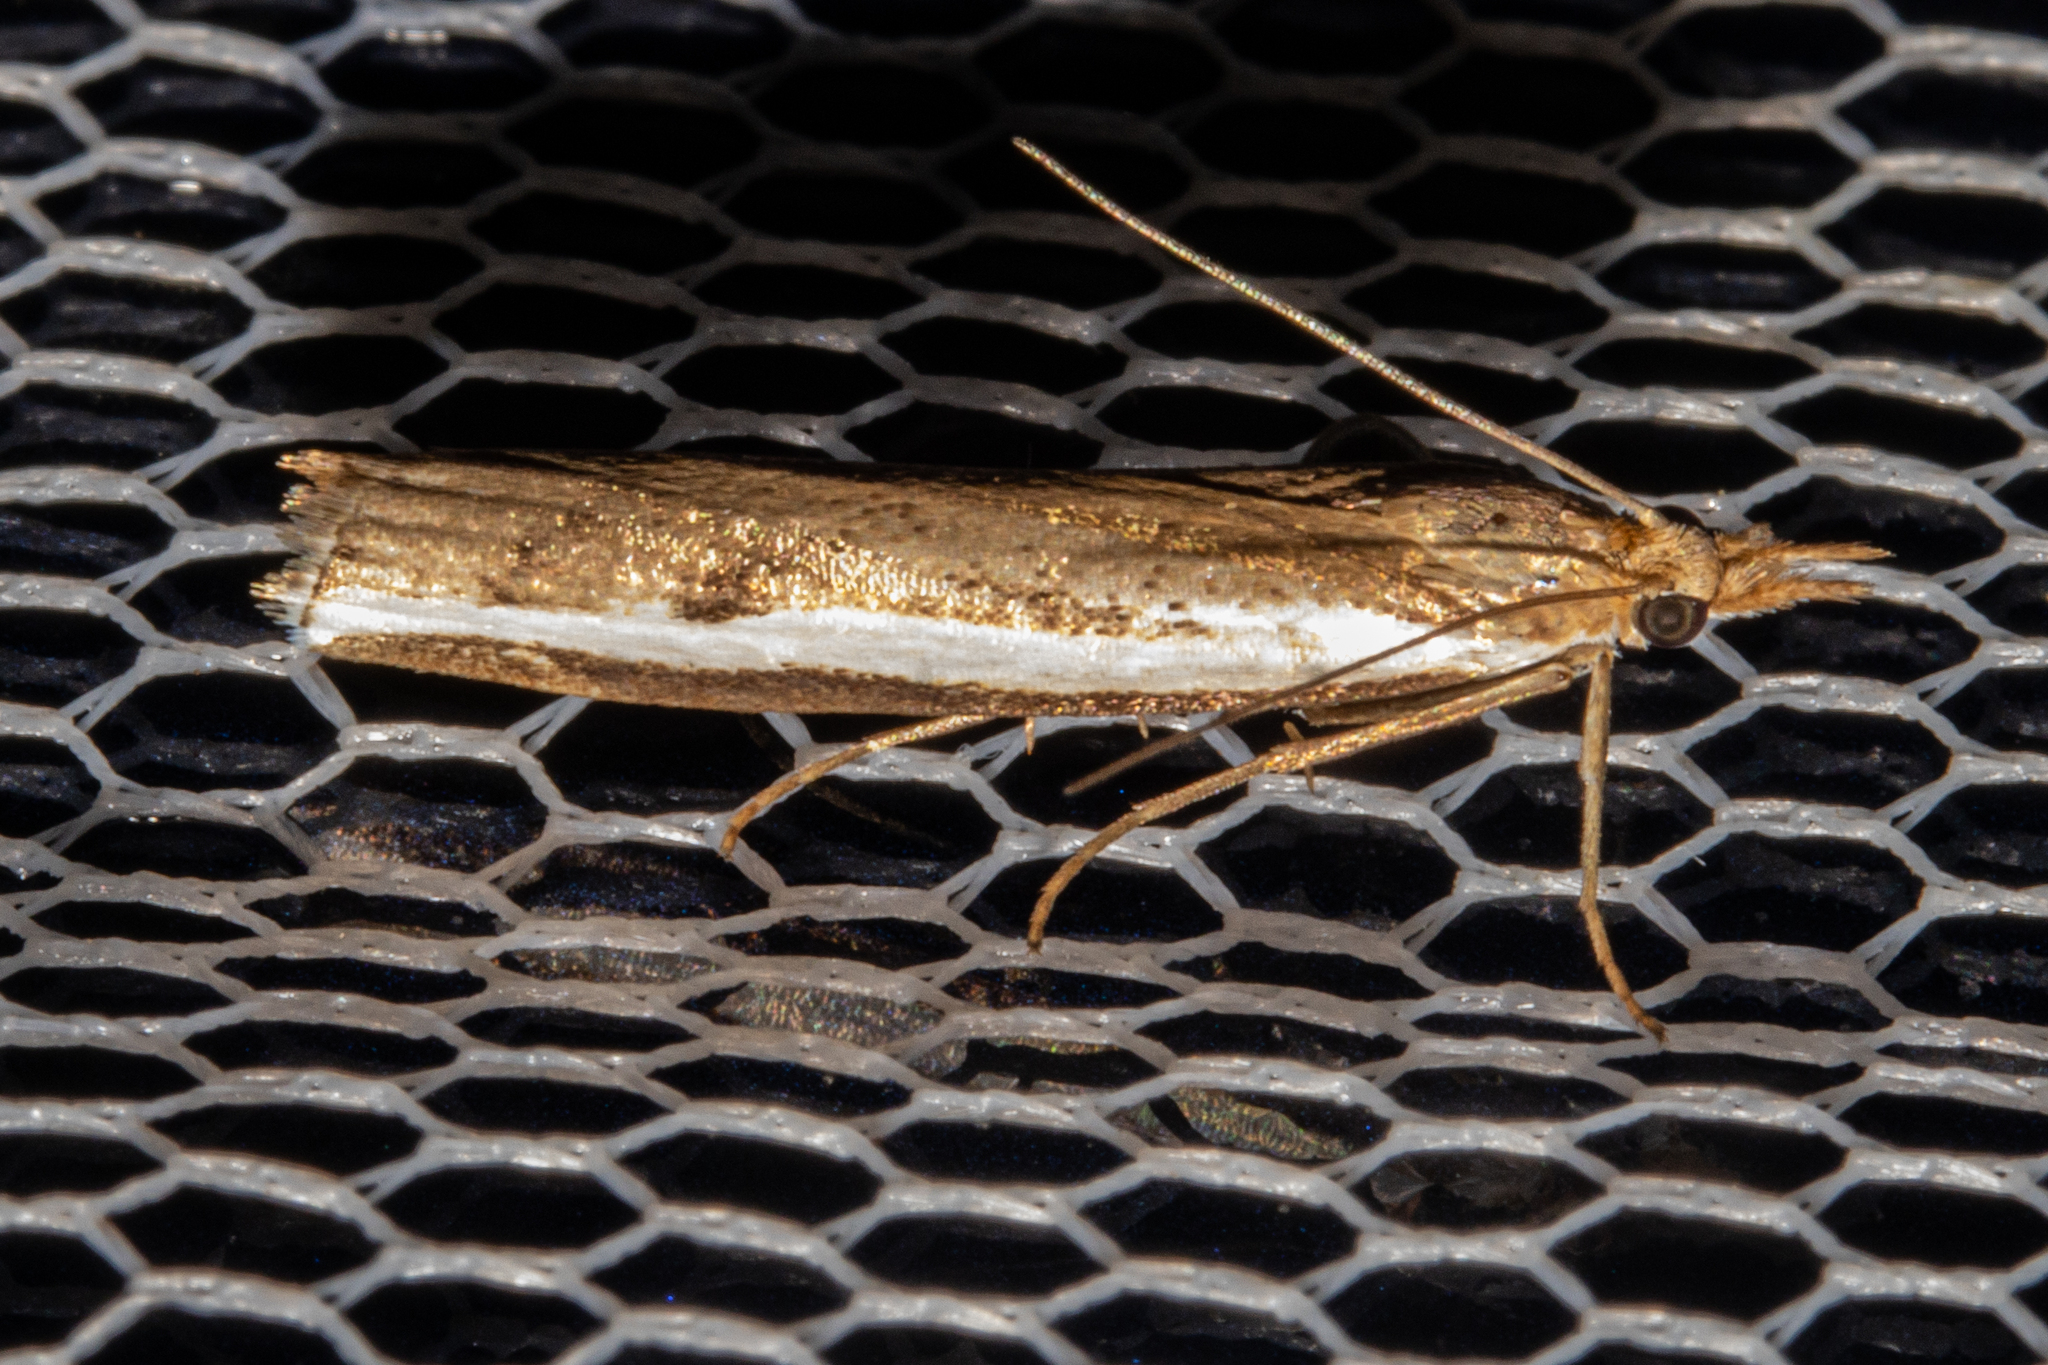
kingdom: Animalia
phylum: Arthropoda
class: Insecta
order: Lepidoptera
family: Crambidae
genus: Orocrambus
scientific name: Orocrambus flexuosellus
